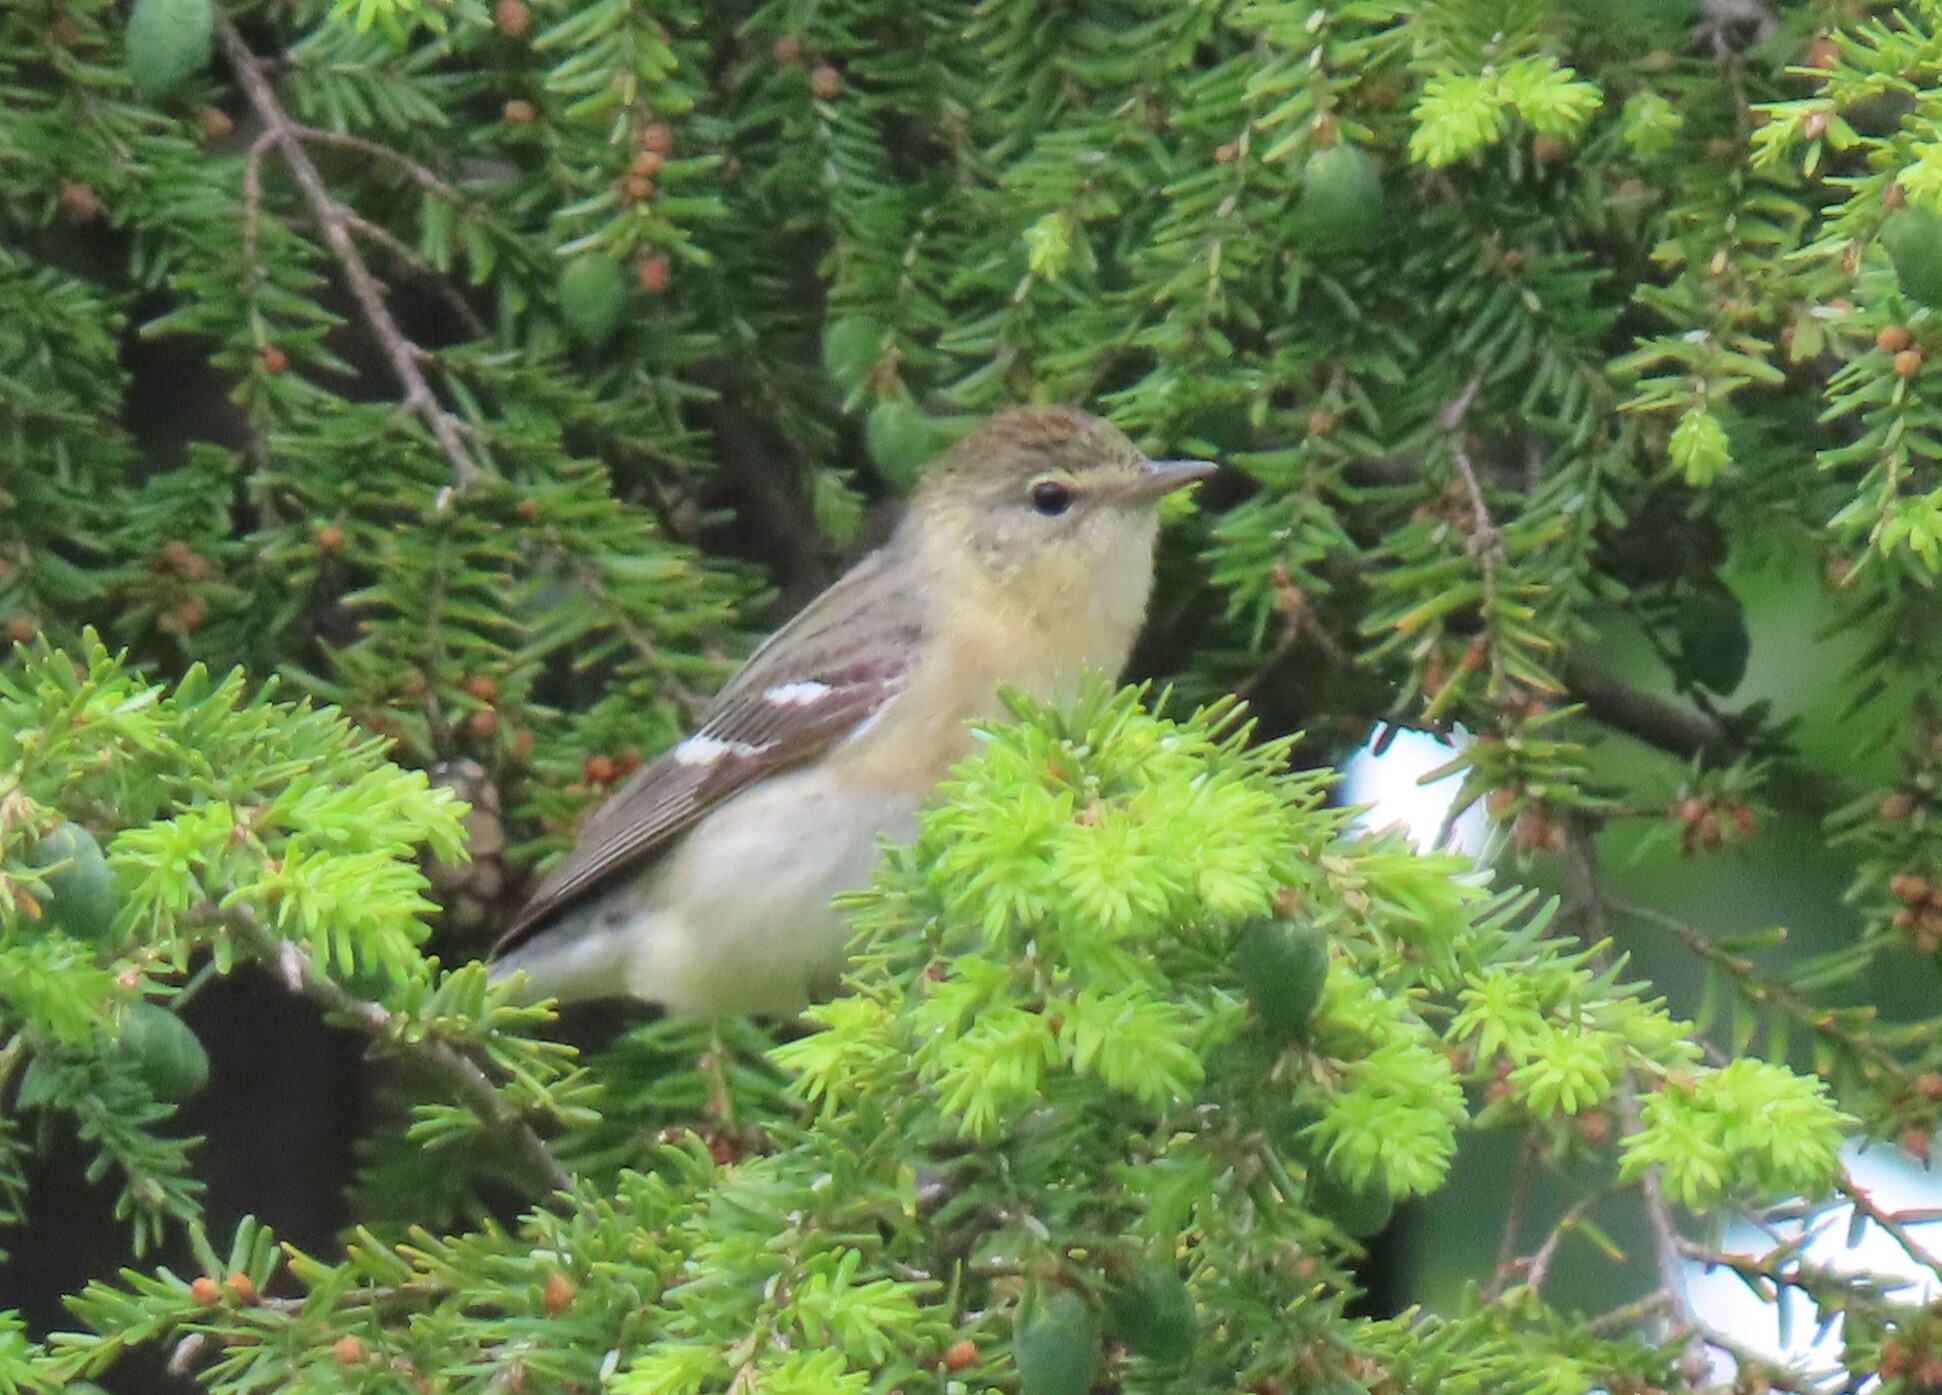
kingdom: Animalia
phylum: Chordata
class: Aves
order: Passeriformes
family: Parulidae
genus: Setophaga
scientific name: Setophaga castanea
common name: Bay-breasted warbler
